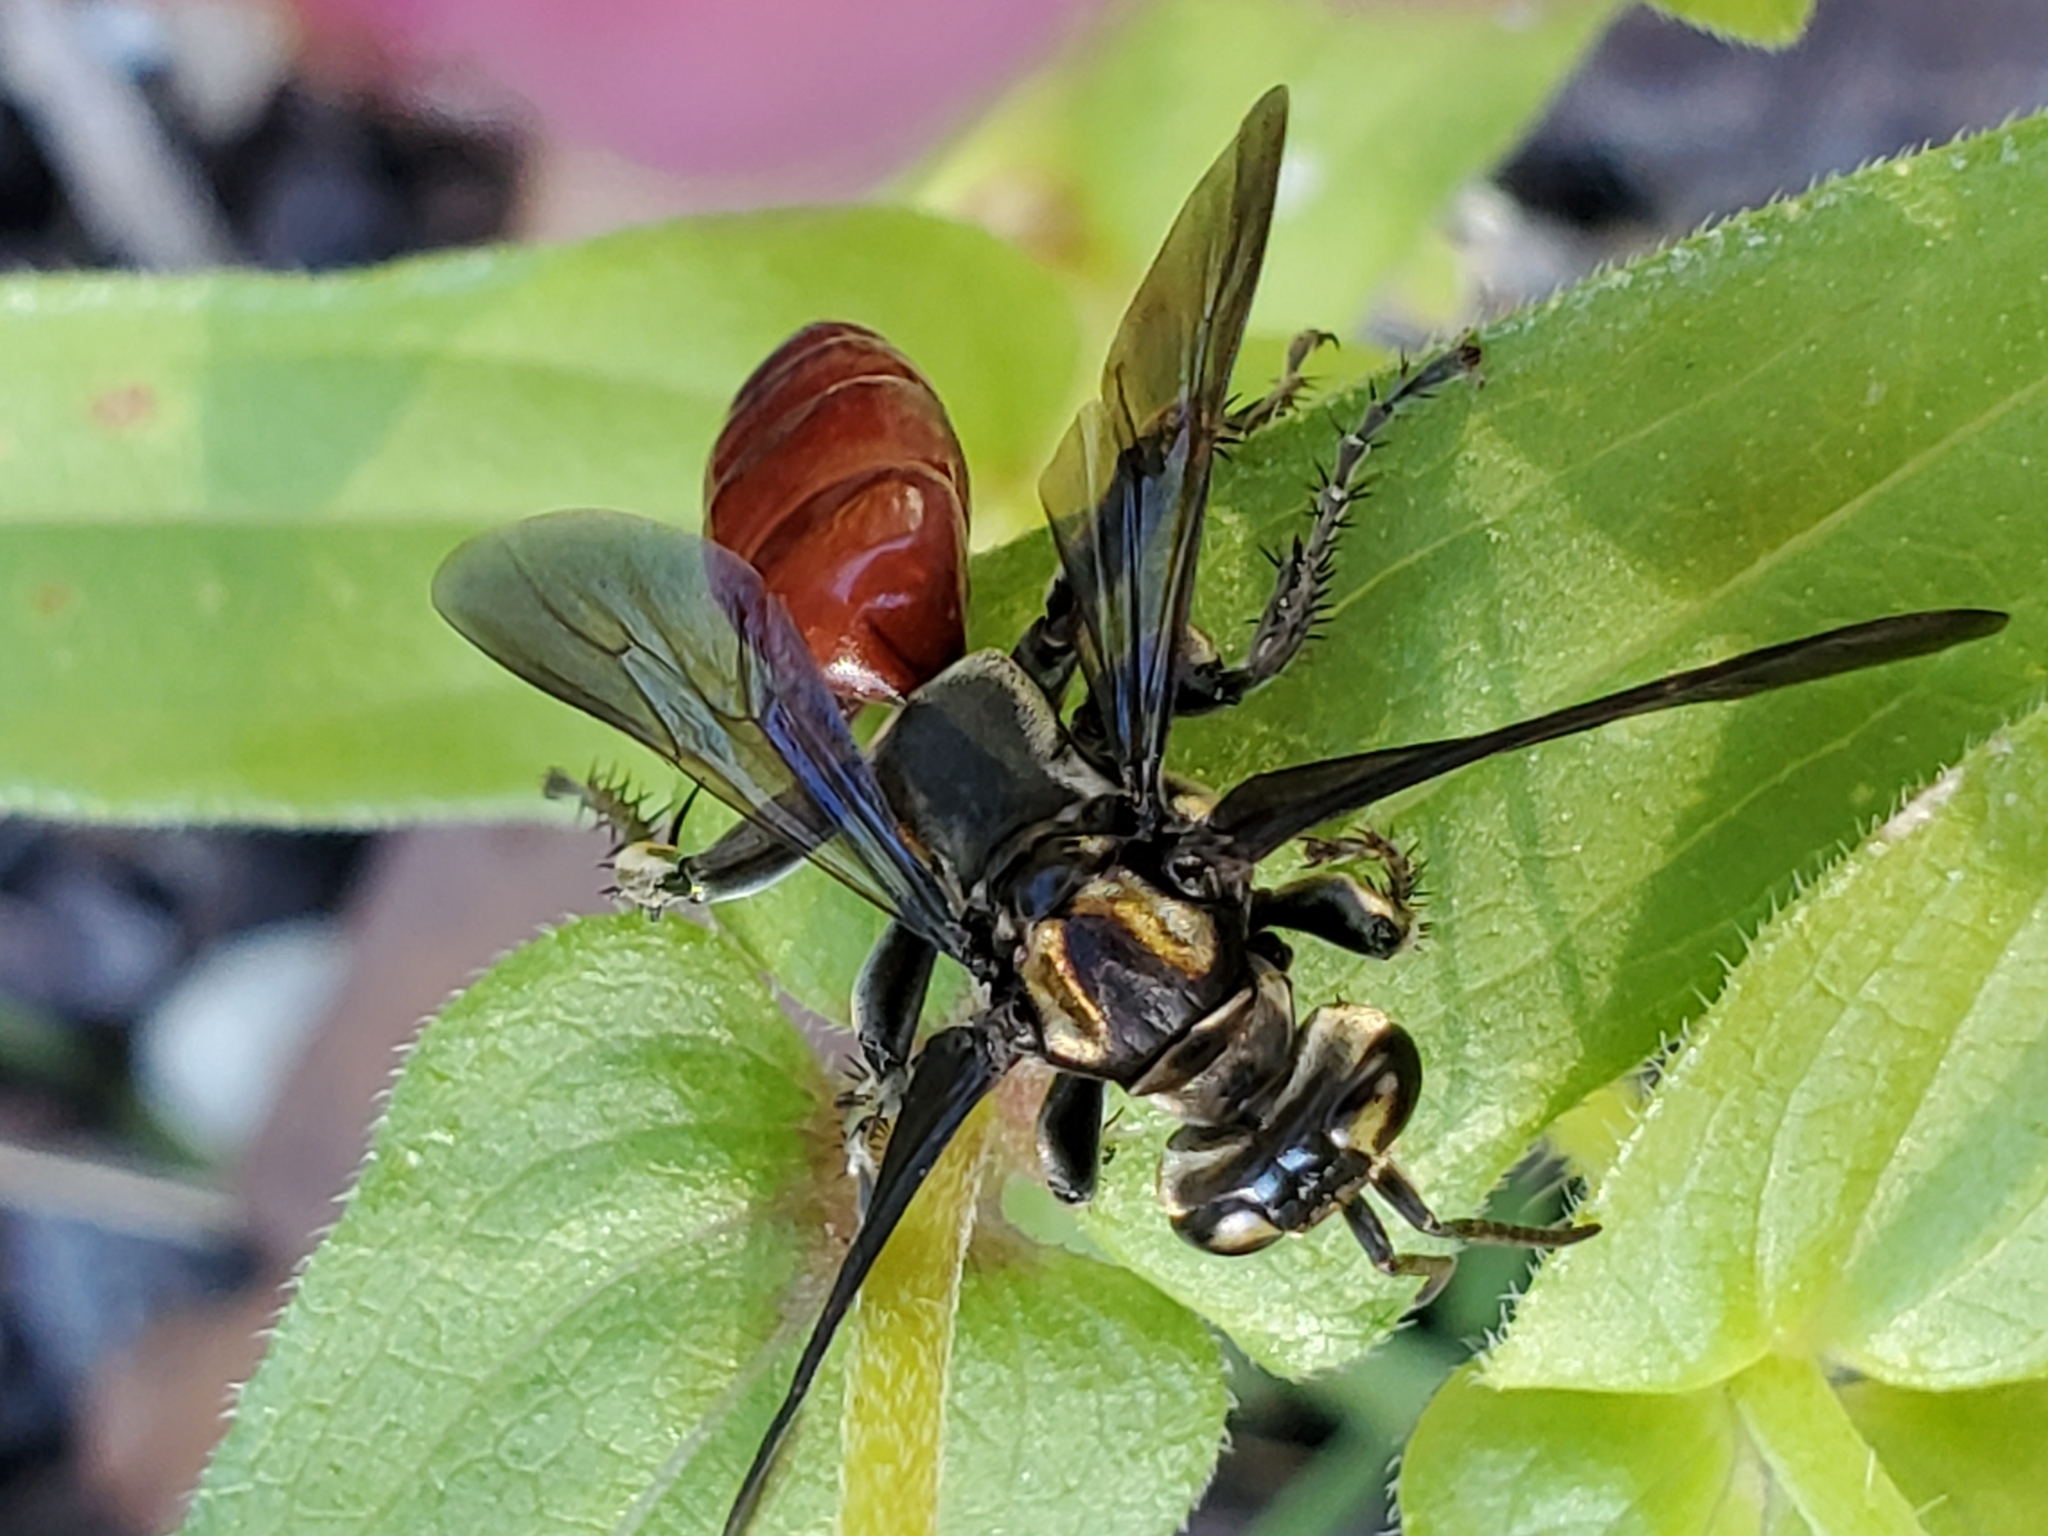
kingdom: Animalia
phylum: Arthropoda
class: Insecta
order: Hymenoptera
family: Crabronidae
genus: Larra
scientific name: Larra bicolor
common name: Wasp
